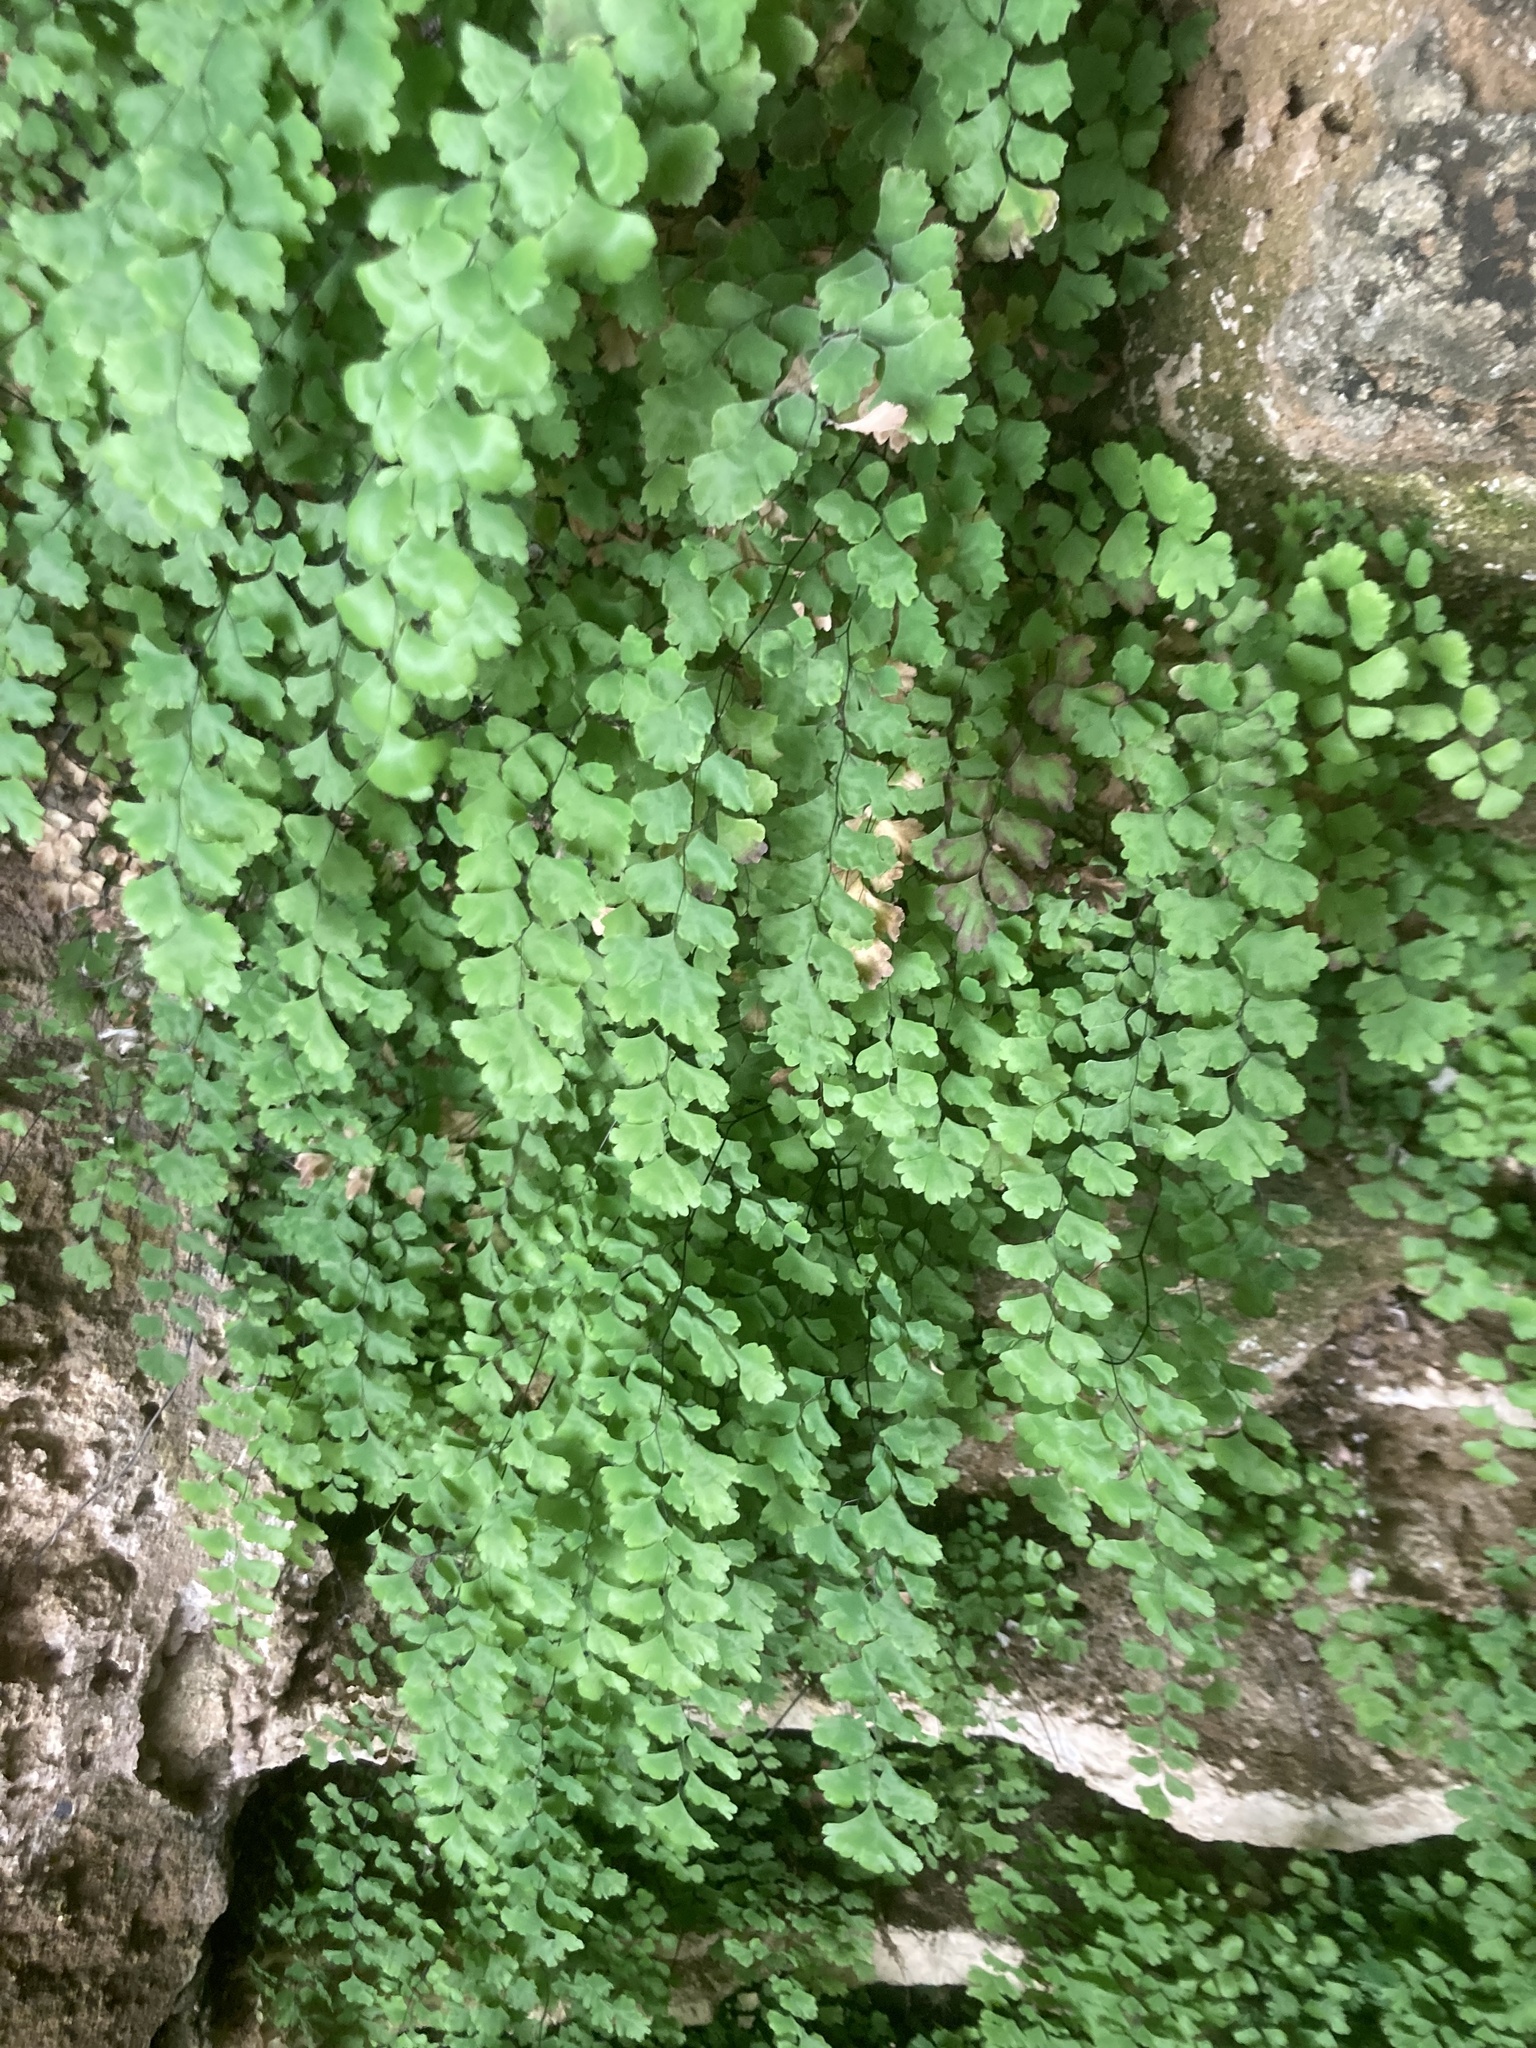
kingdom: Plantae
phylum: Tracheophyta
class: Polypodiopsida
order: Polypodiales
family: Pteridaceae
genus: Adiantum
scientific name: Adiantum capillus-veneris
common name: Maidenhair fern
